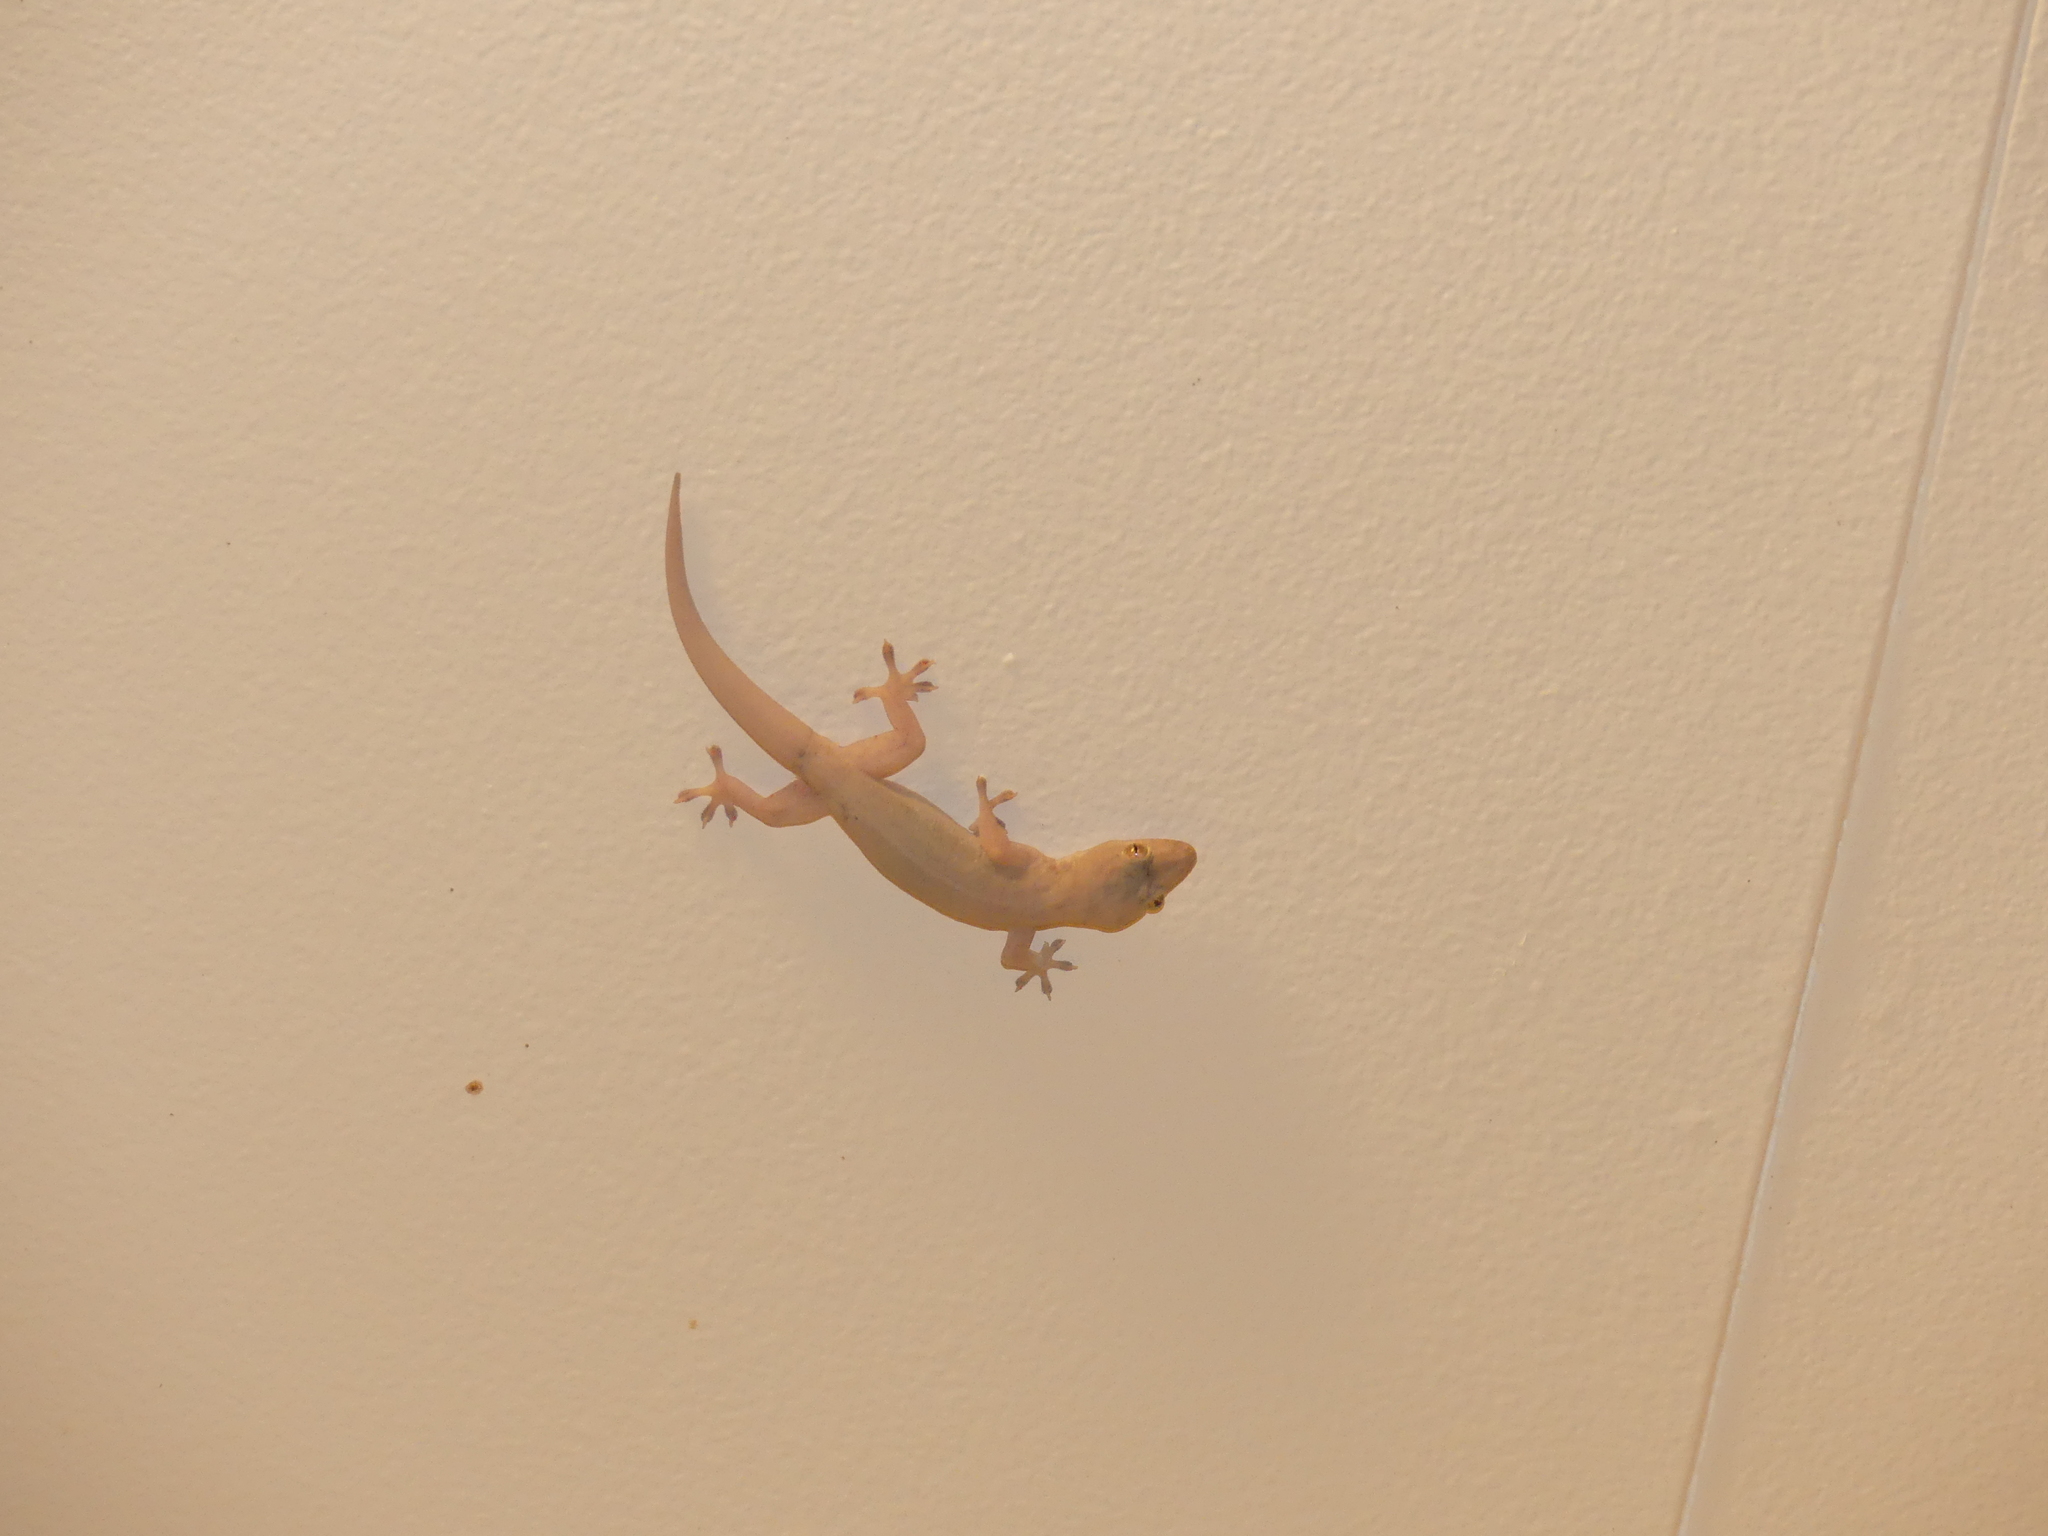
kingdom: Animalia
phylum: Chordata
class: Squamata
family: Gekkonidae
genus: Hemidactylus
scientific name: Hemidactylus frenatus
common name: Common house gecko
